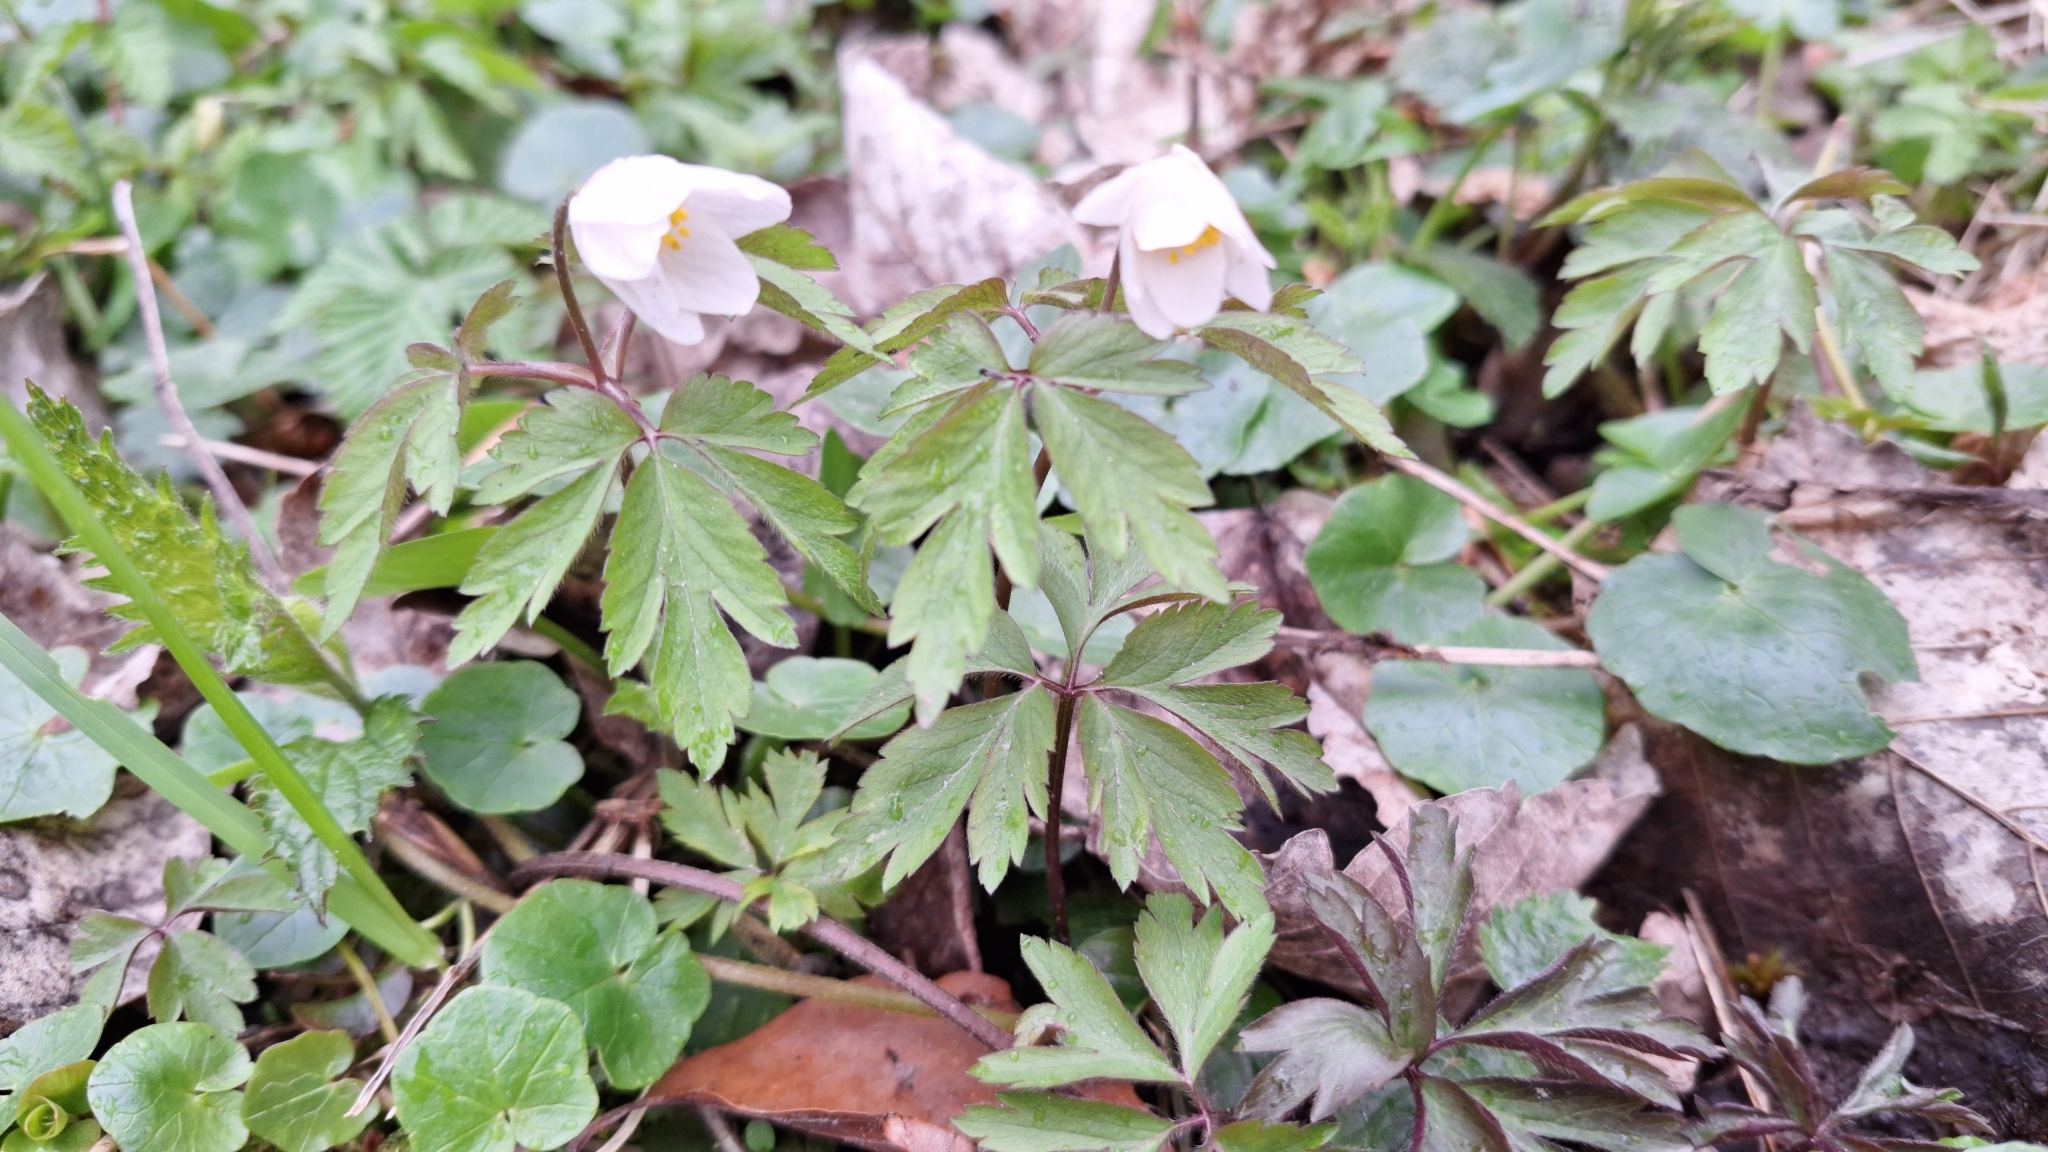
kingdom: Plantae
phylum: Tracheophyta
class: Magnoliopsida
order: Ranunculales
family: Ranunculaceae
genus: Anemone
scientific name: Anemone nemorosa
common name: Wood anemone
